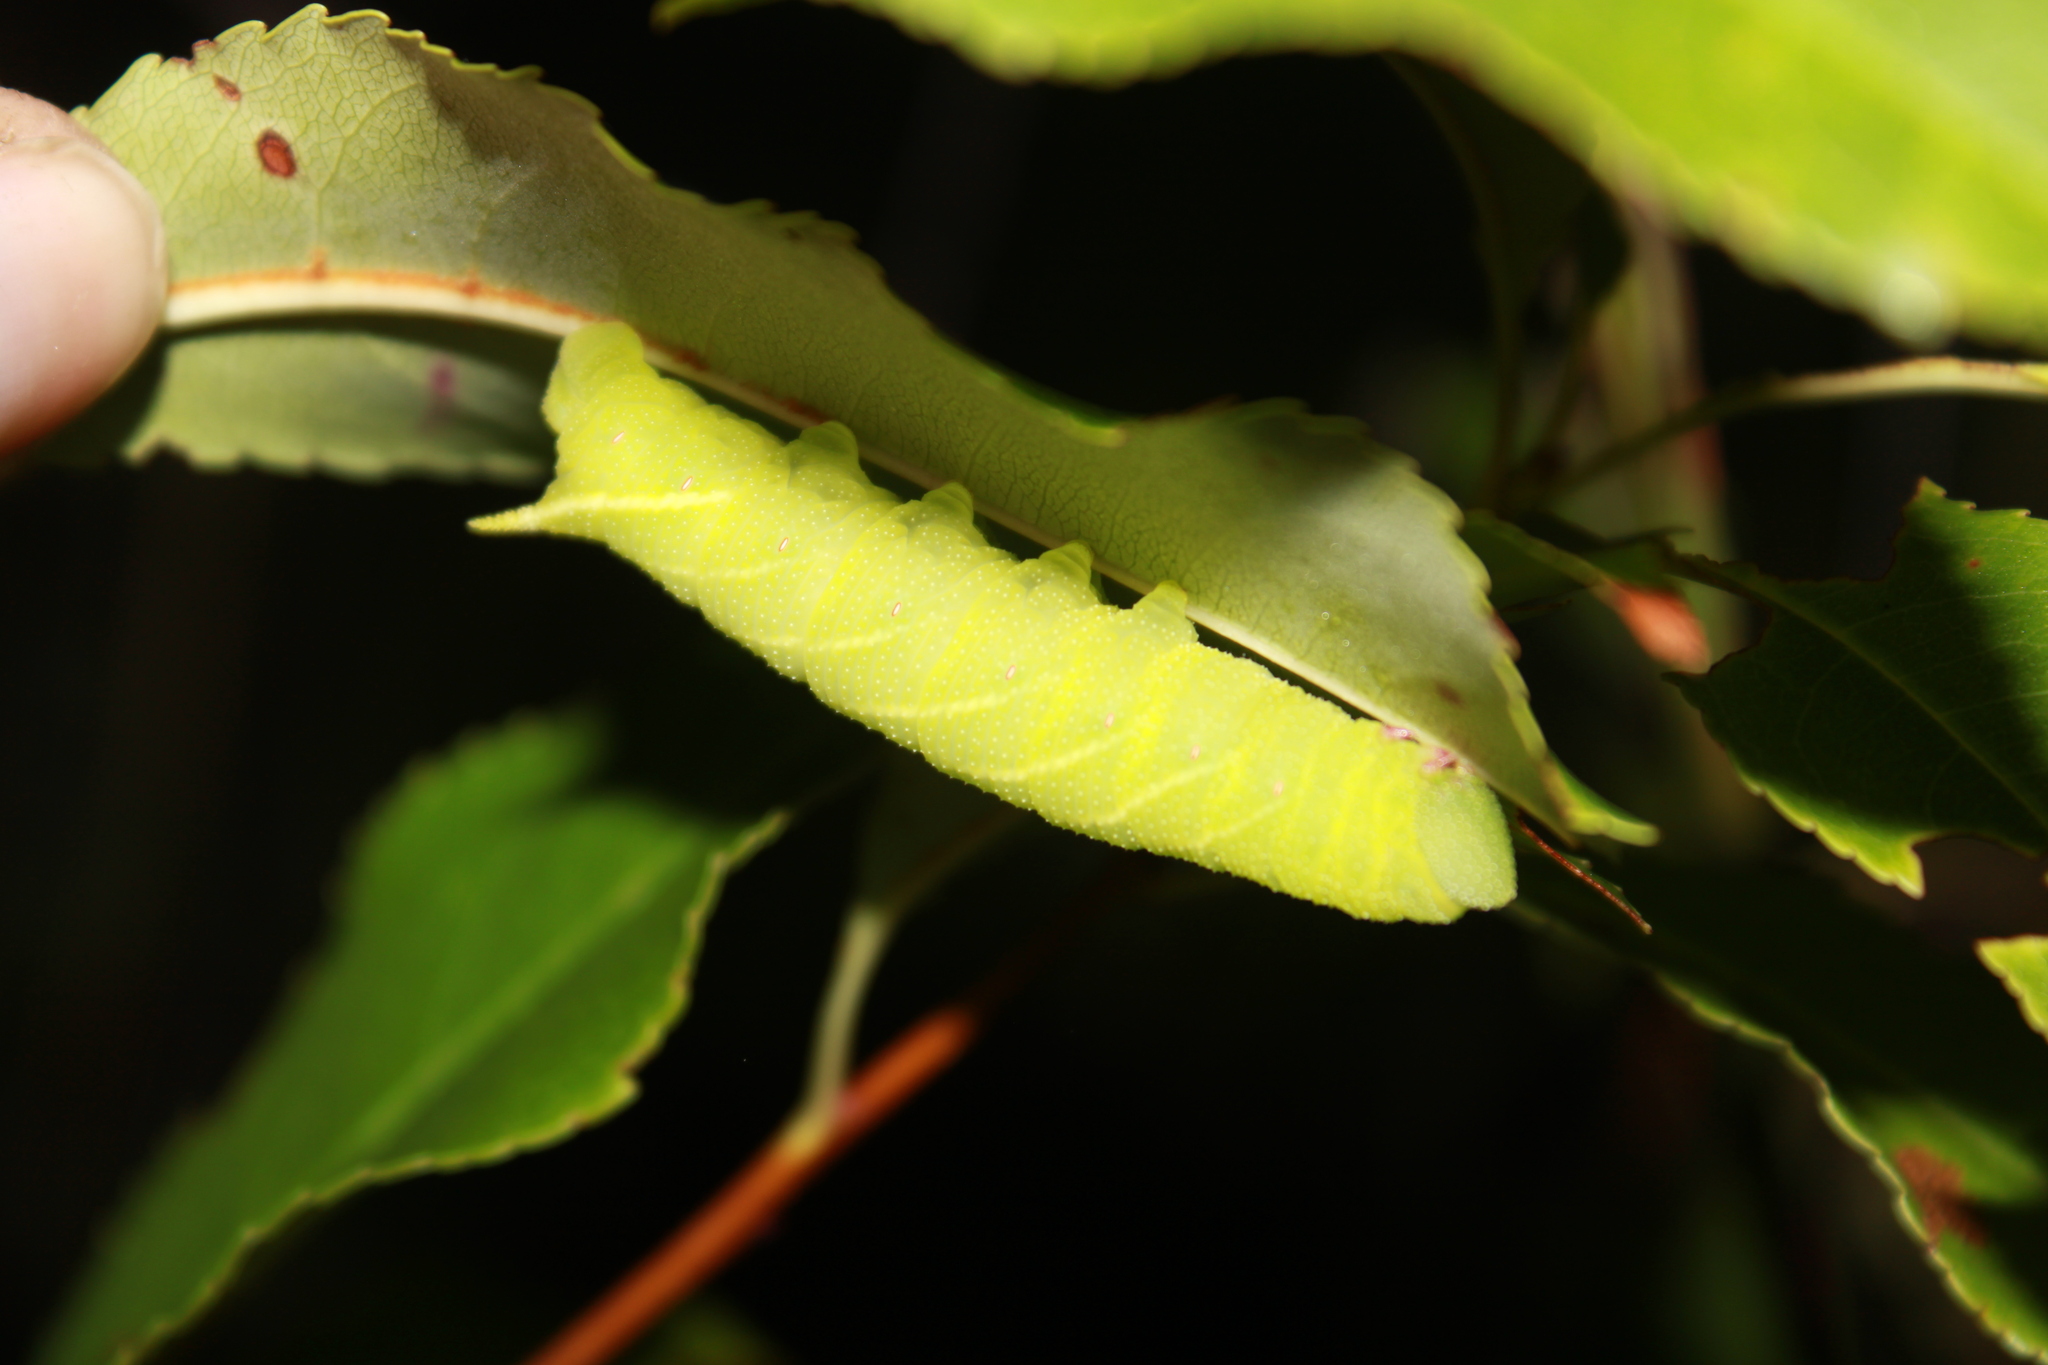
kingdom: Animalia
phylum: Arthropoda
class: Insecta
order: Lepidoptera
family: Sphingidae
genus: Paonias
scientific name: Paonias myops
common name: Small-eyed sphinx
